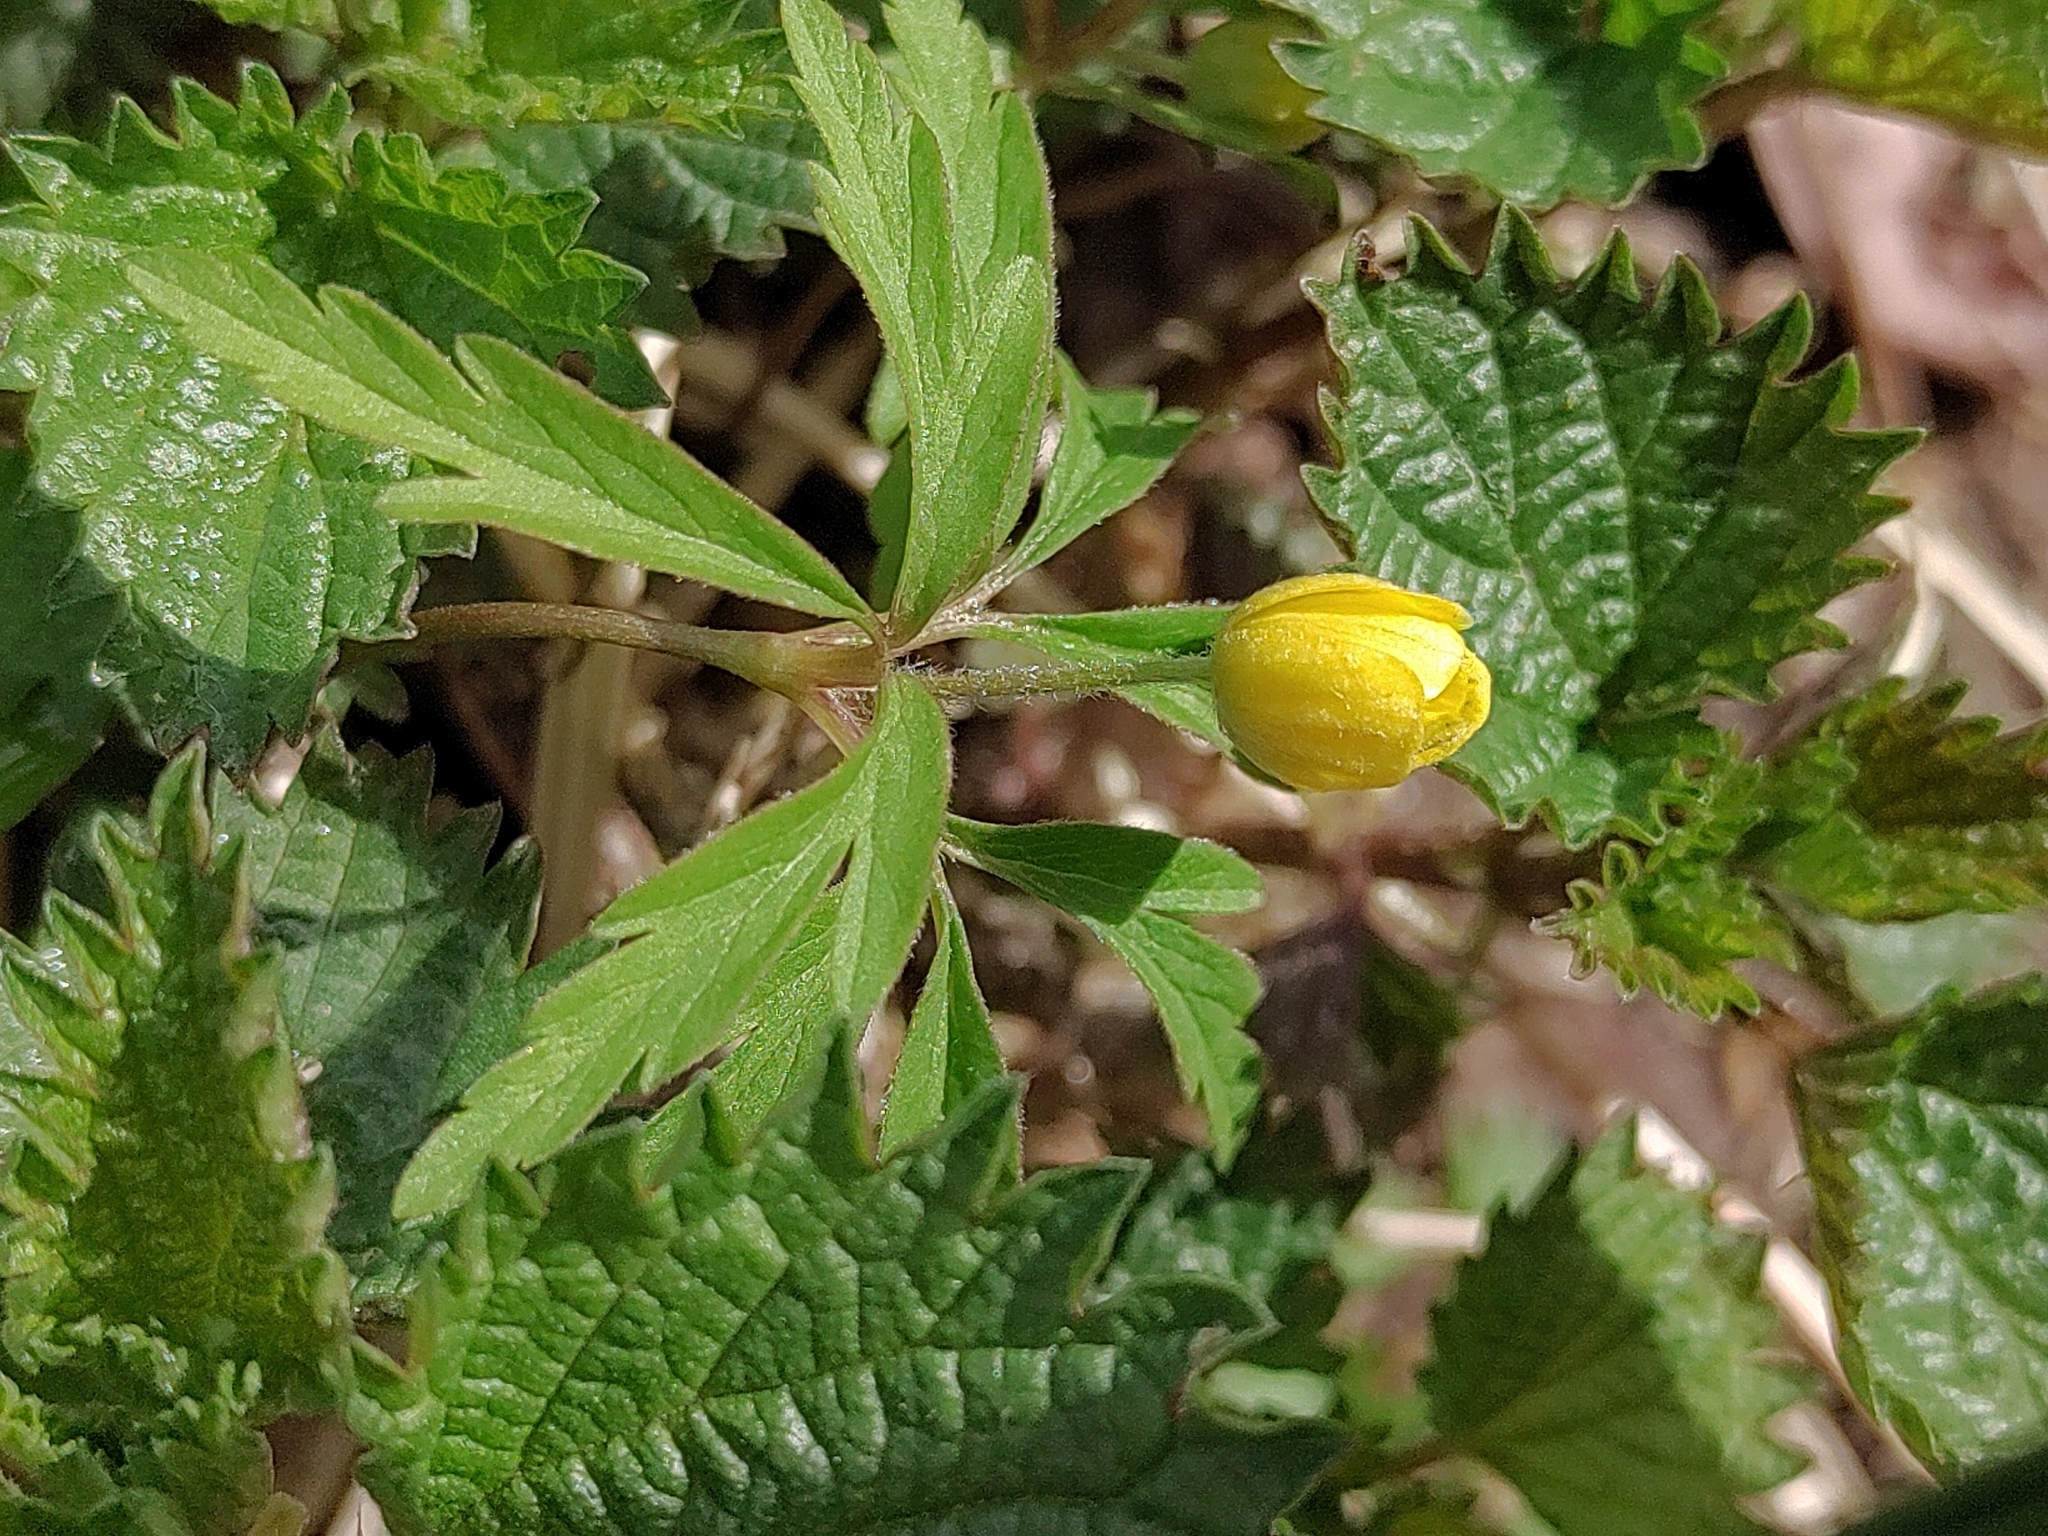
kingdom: Plantae
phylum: Tracheophyta
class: Magnoliopsida
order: Ranunculales
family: Ranunculaceae
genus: Anemone
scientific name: Anemone ranunculoides
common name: Yellow anemone
